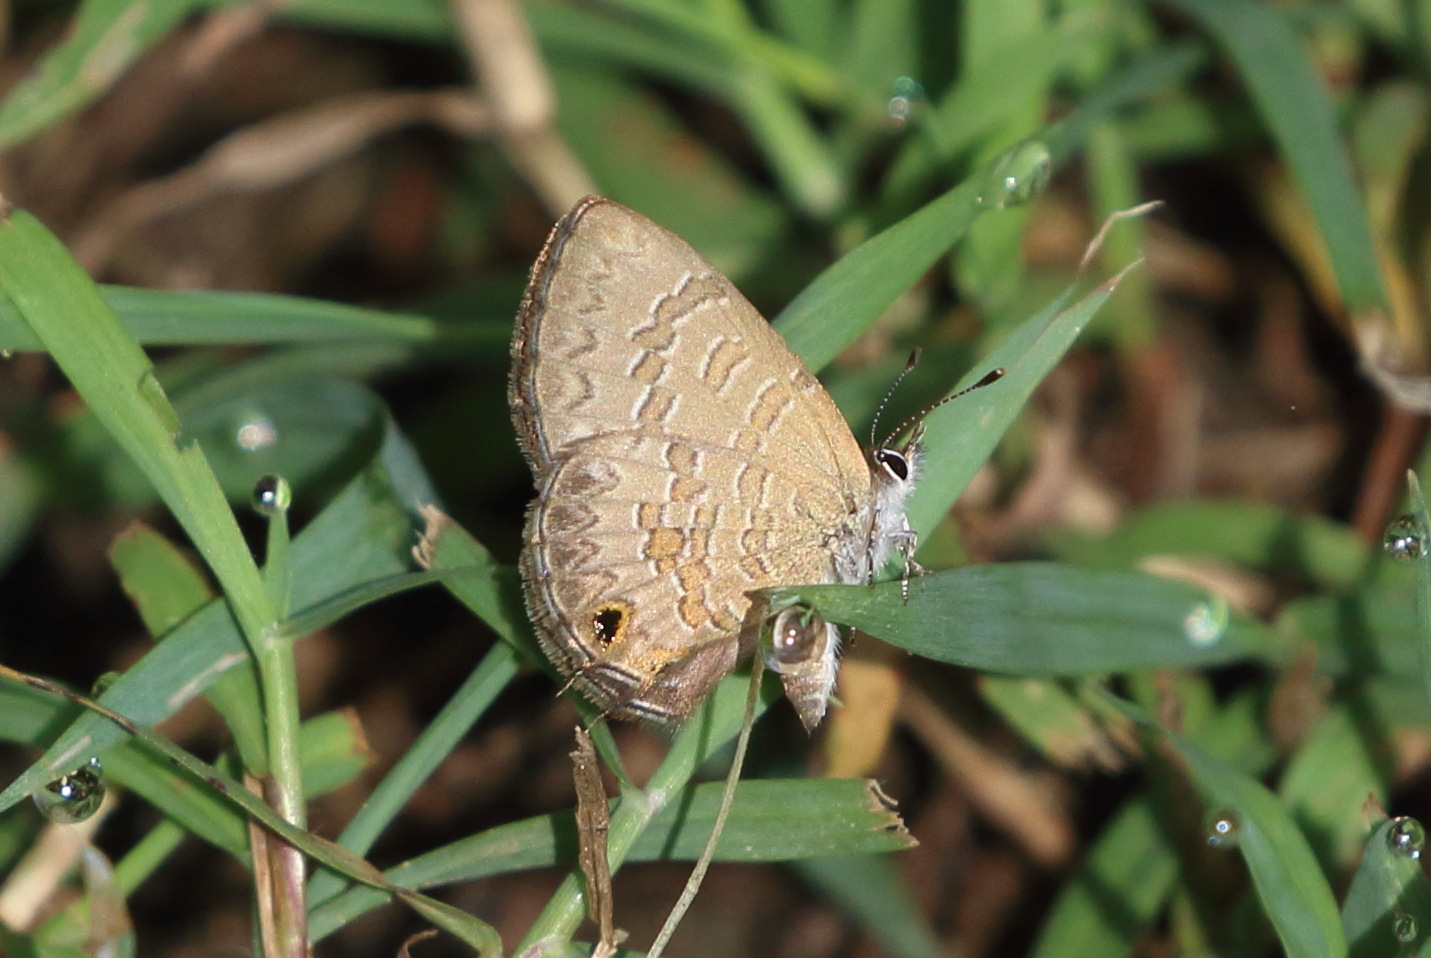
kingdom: Animalia
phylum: Arthropoda
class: Insecta
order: Lepidoptera
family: Lycaenidae
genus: Prosotas
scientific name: Prosotas felderi
